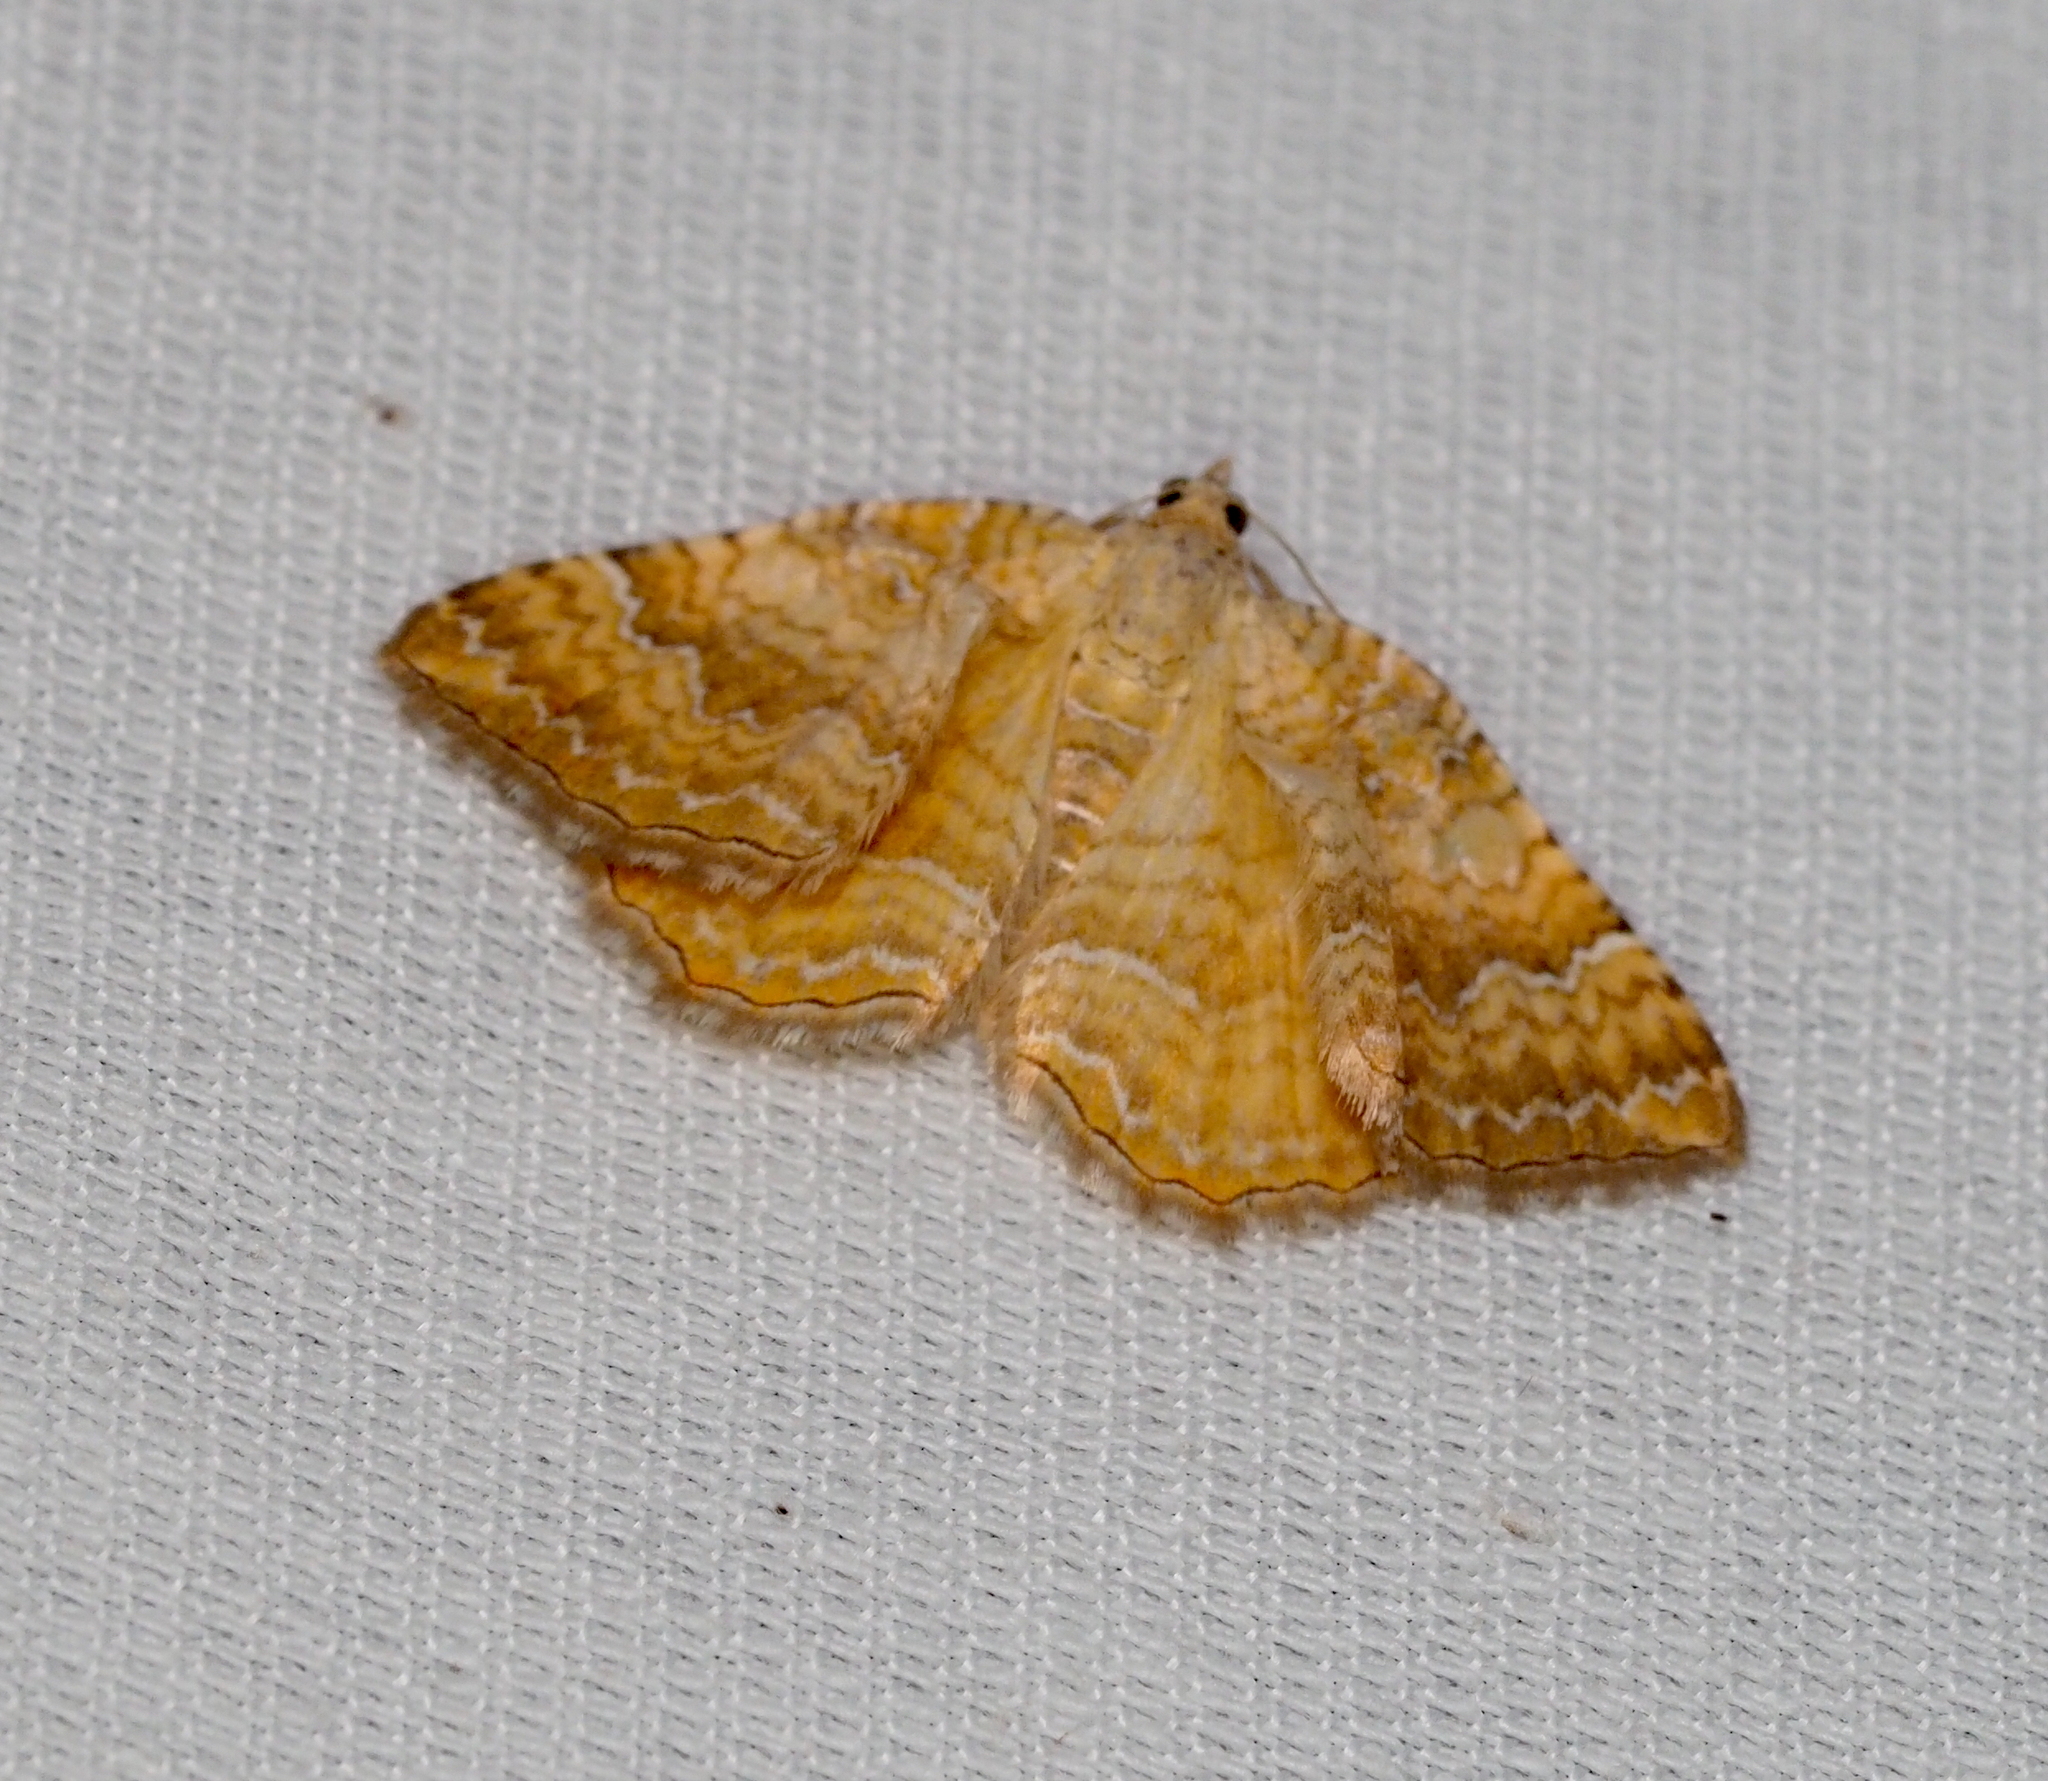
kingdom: Animalia
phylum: Arthropoda
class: Insecta
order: Lepidoptera
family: Geometridae
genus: Camptogramma
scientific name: Camptogramma bilineata
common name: Yellow shell
